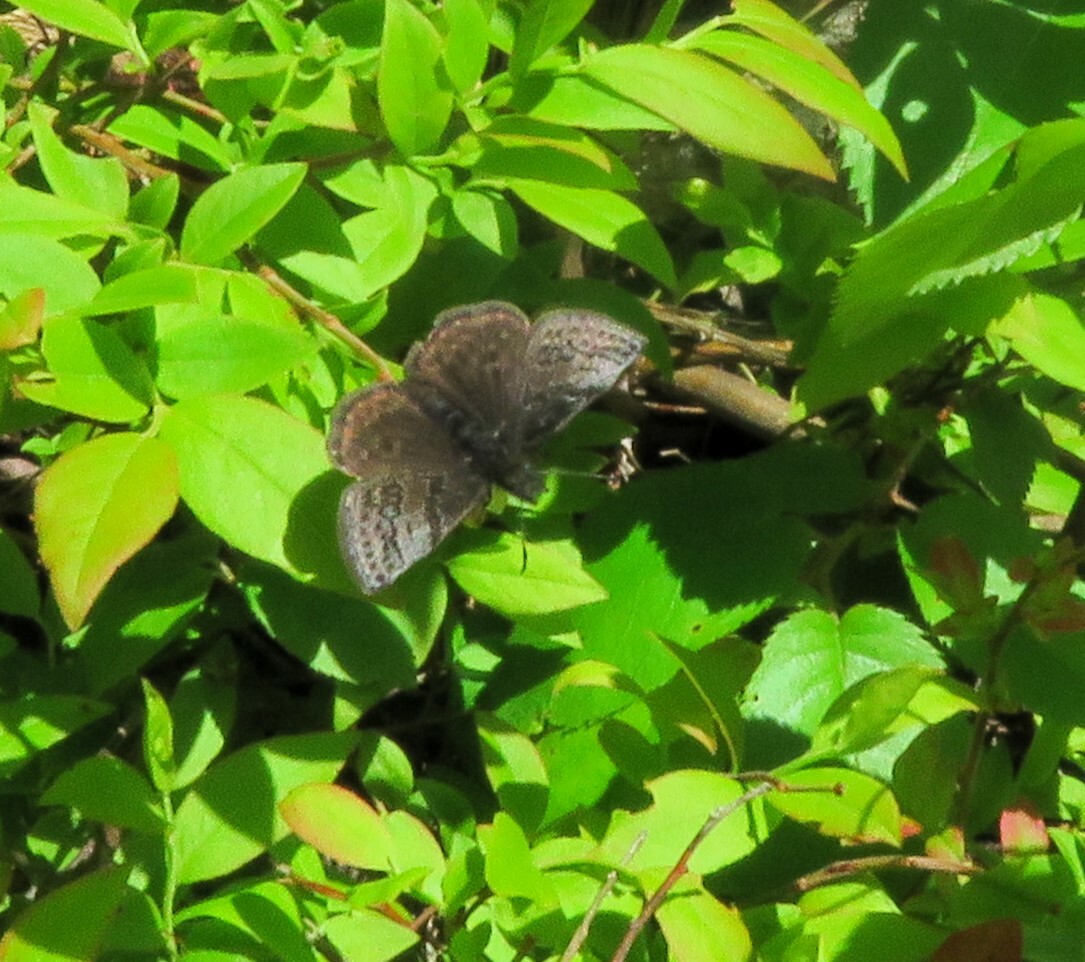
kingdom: Animalia
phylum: Arthropoda
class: Insecta
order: Lepidoptera
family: Hesperiidae
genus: Erynnis
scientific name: Erynnis icelus
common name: Dreamy duskywing
